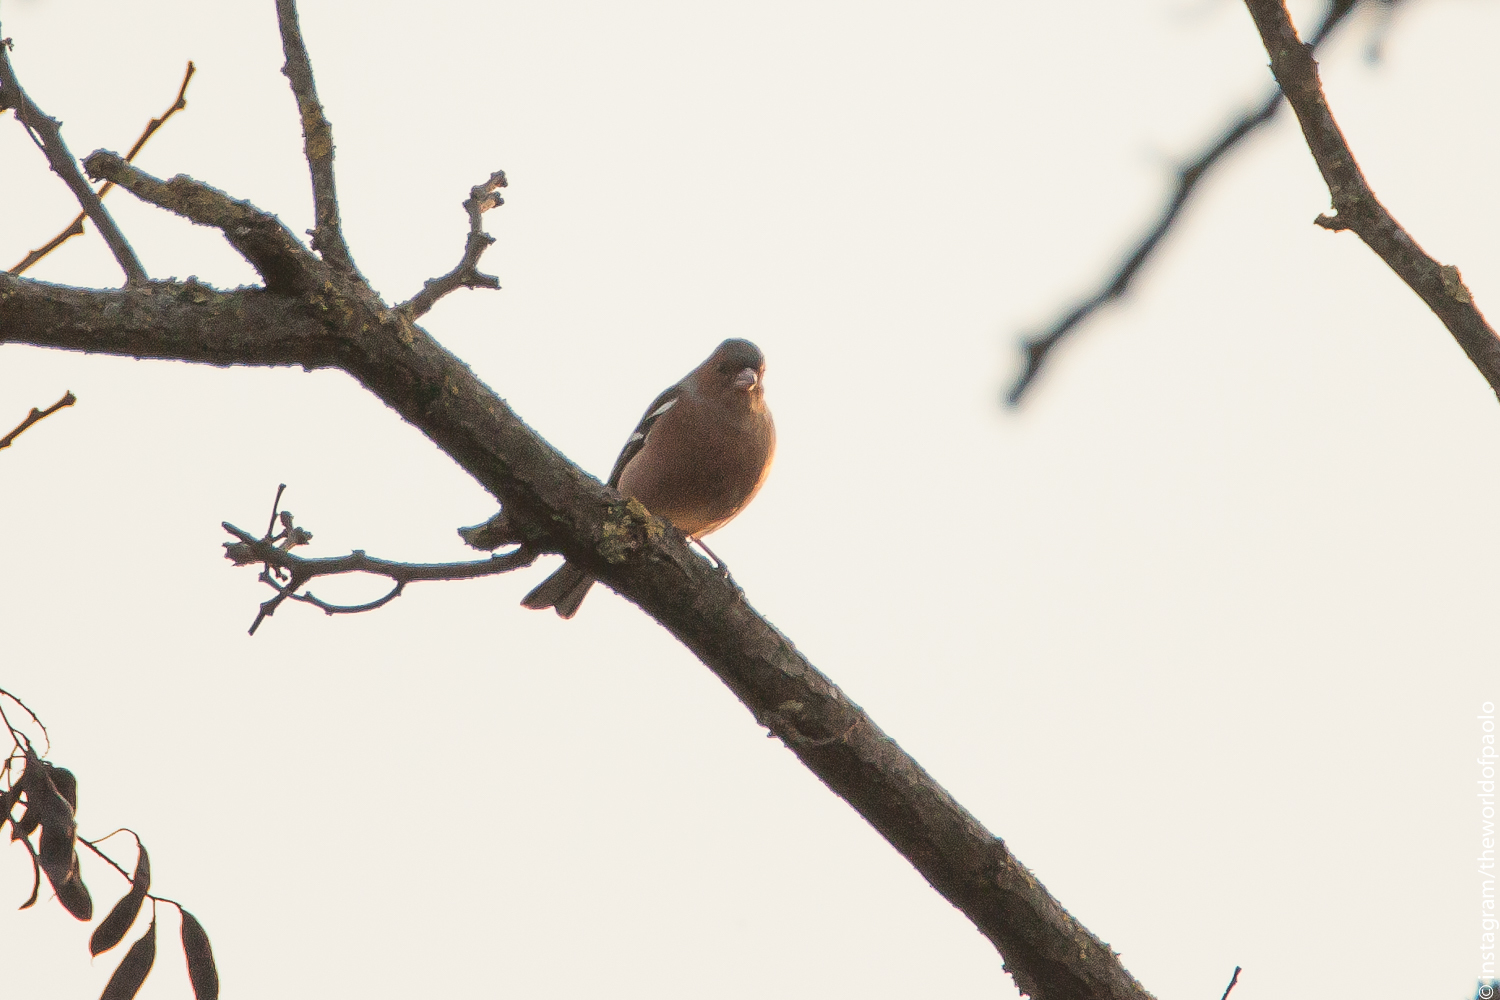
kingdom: Animalia
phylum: Chordata
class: Aves
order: Passeriformes
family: Fringillidae
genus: Fringilla
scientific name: Fringilla coelebs
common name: Common chaffinch
